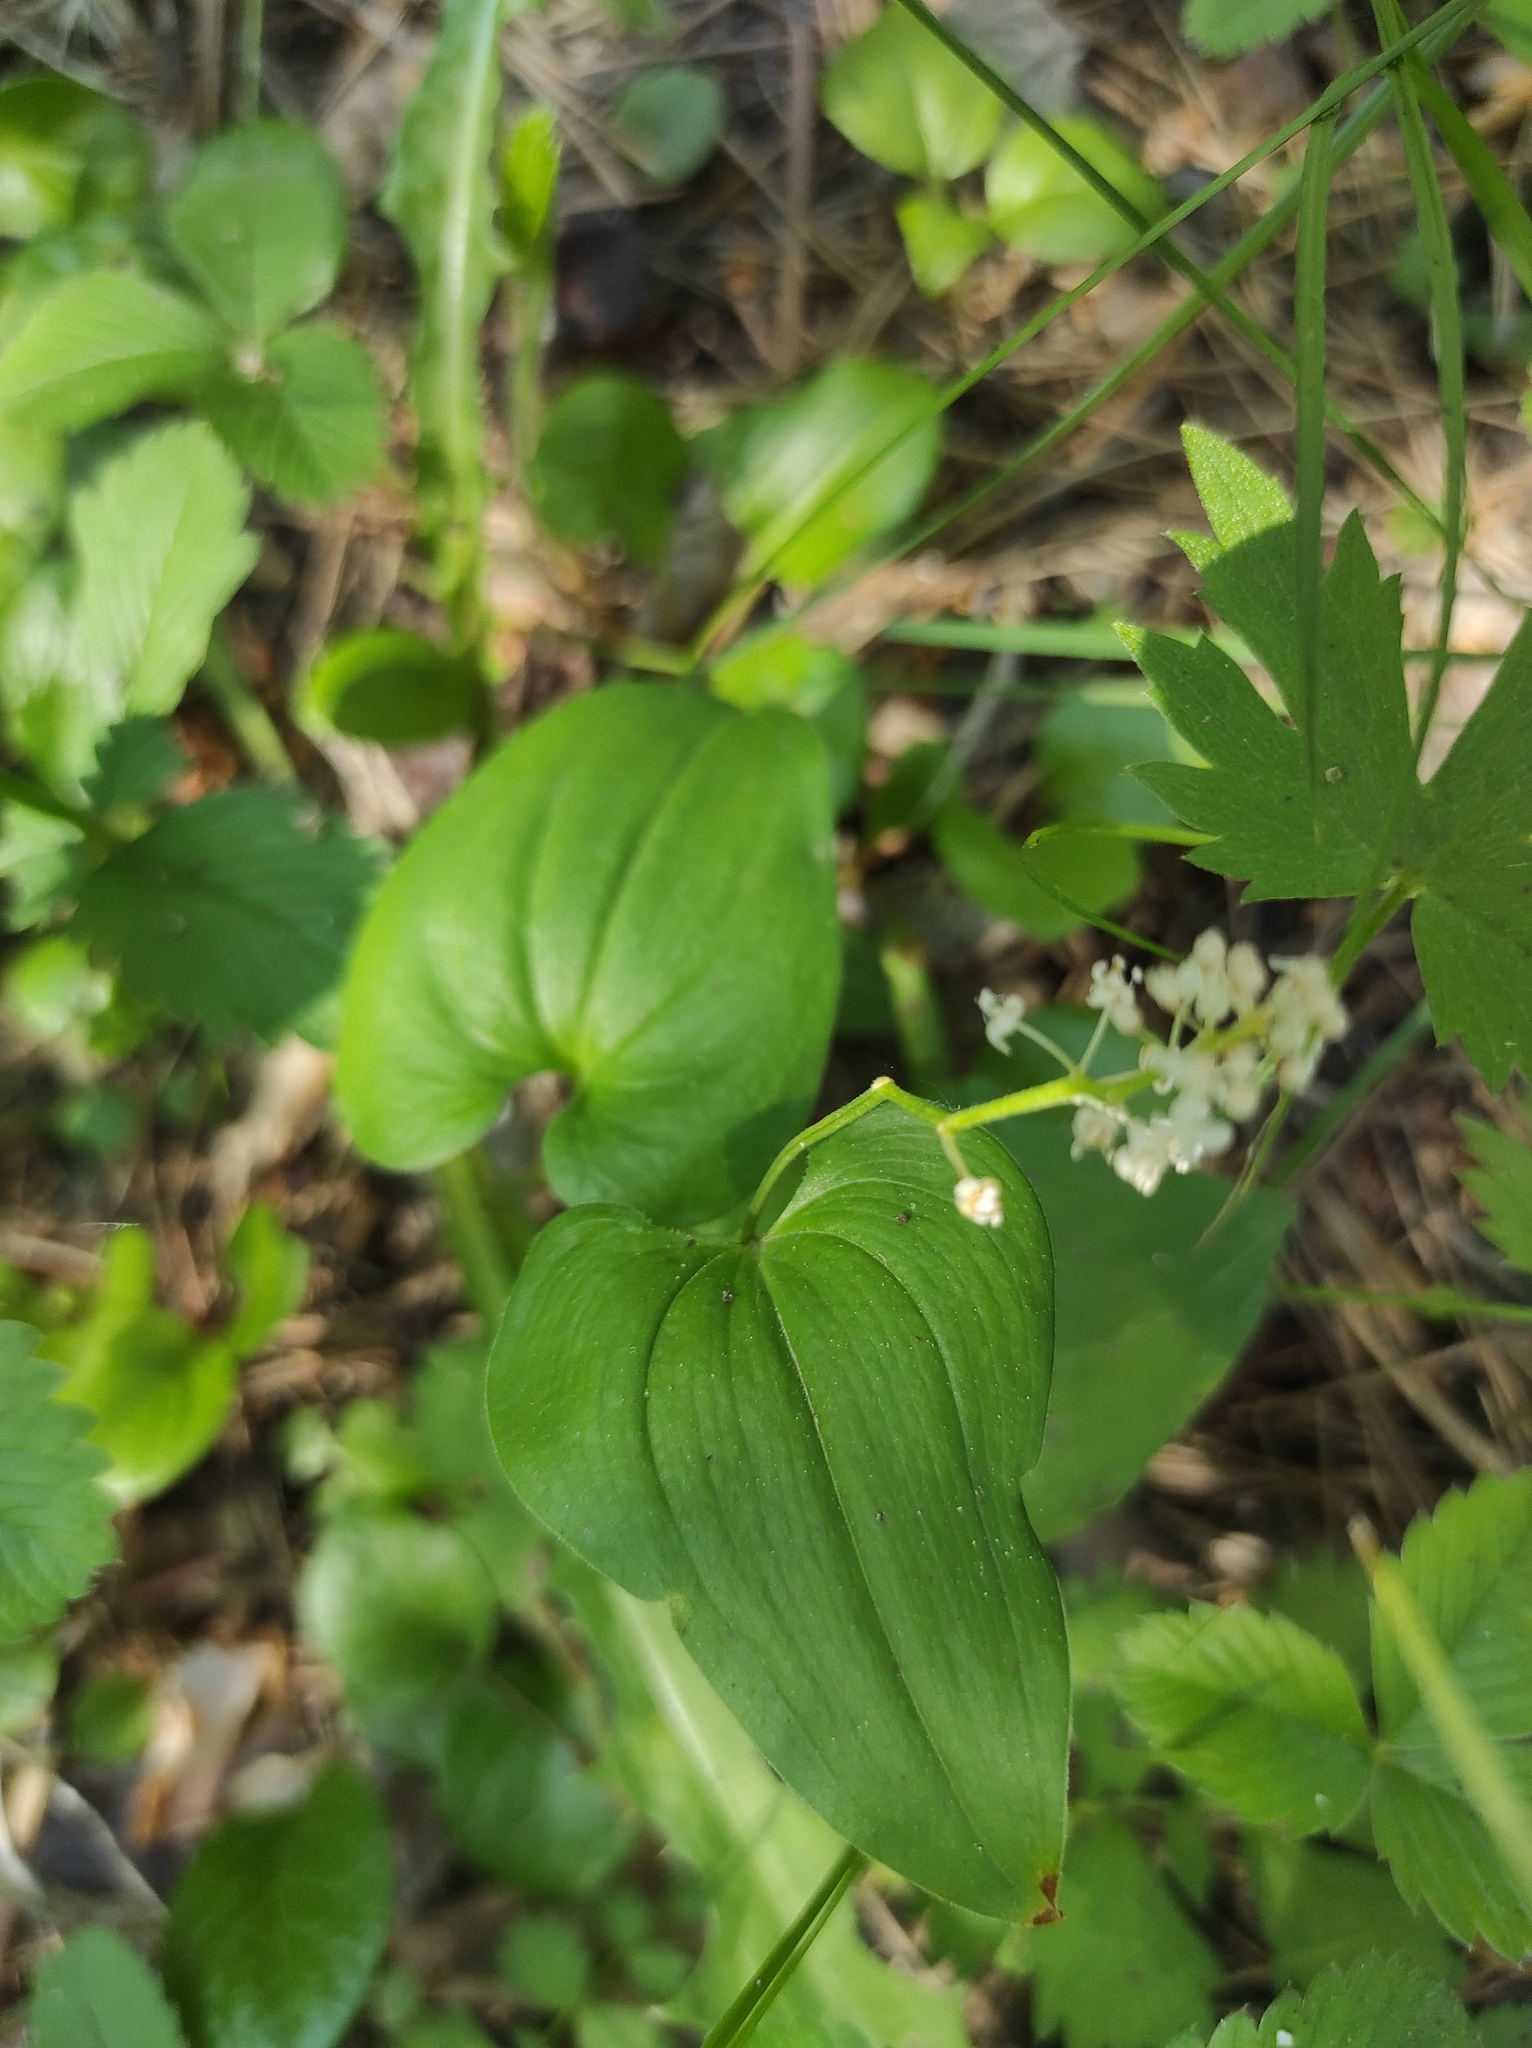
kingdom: Plantae
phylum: Tracheophyta
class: Liliopsida
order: Asparagales
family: Asparagaceae
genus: Maianthemum
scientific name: Maianthemum bifolium
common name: May lily
